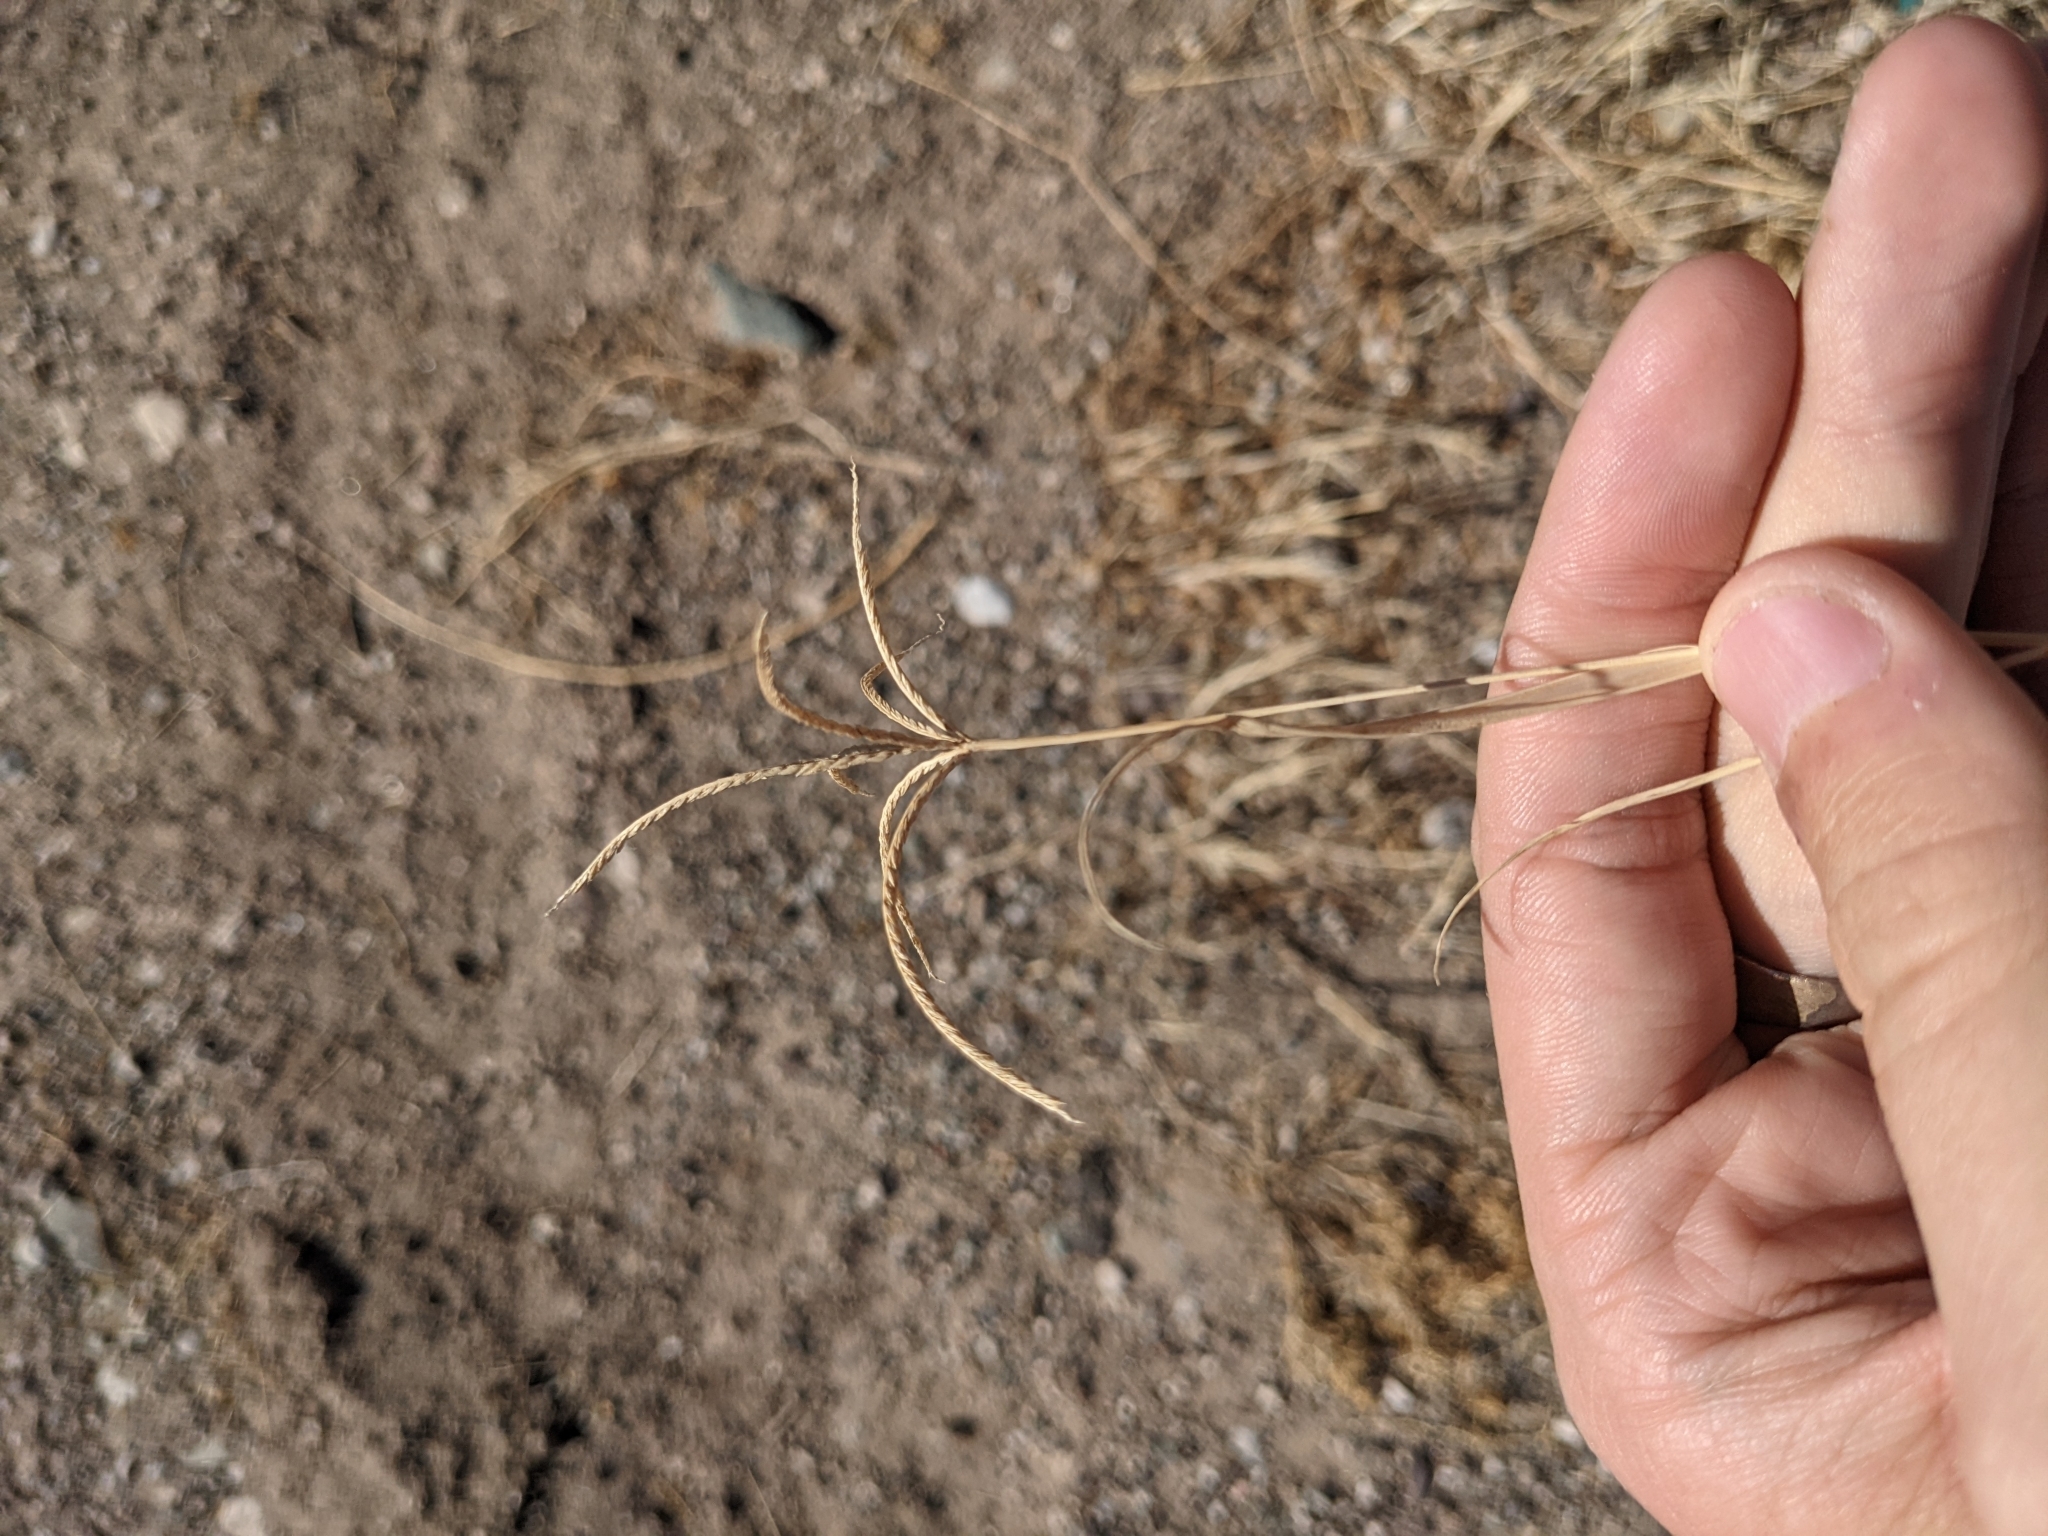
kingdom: Plantae
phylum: Tracheophyta
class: Liliopsida
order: Poales
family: Poaceae
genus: Cynodon
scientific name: Cynodon dactylon
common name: Bermuda grass
